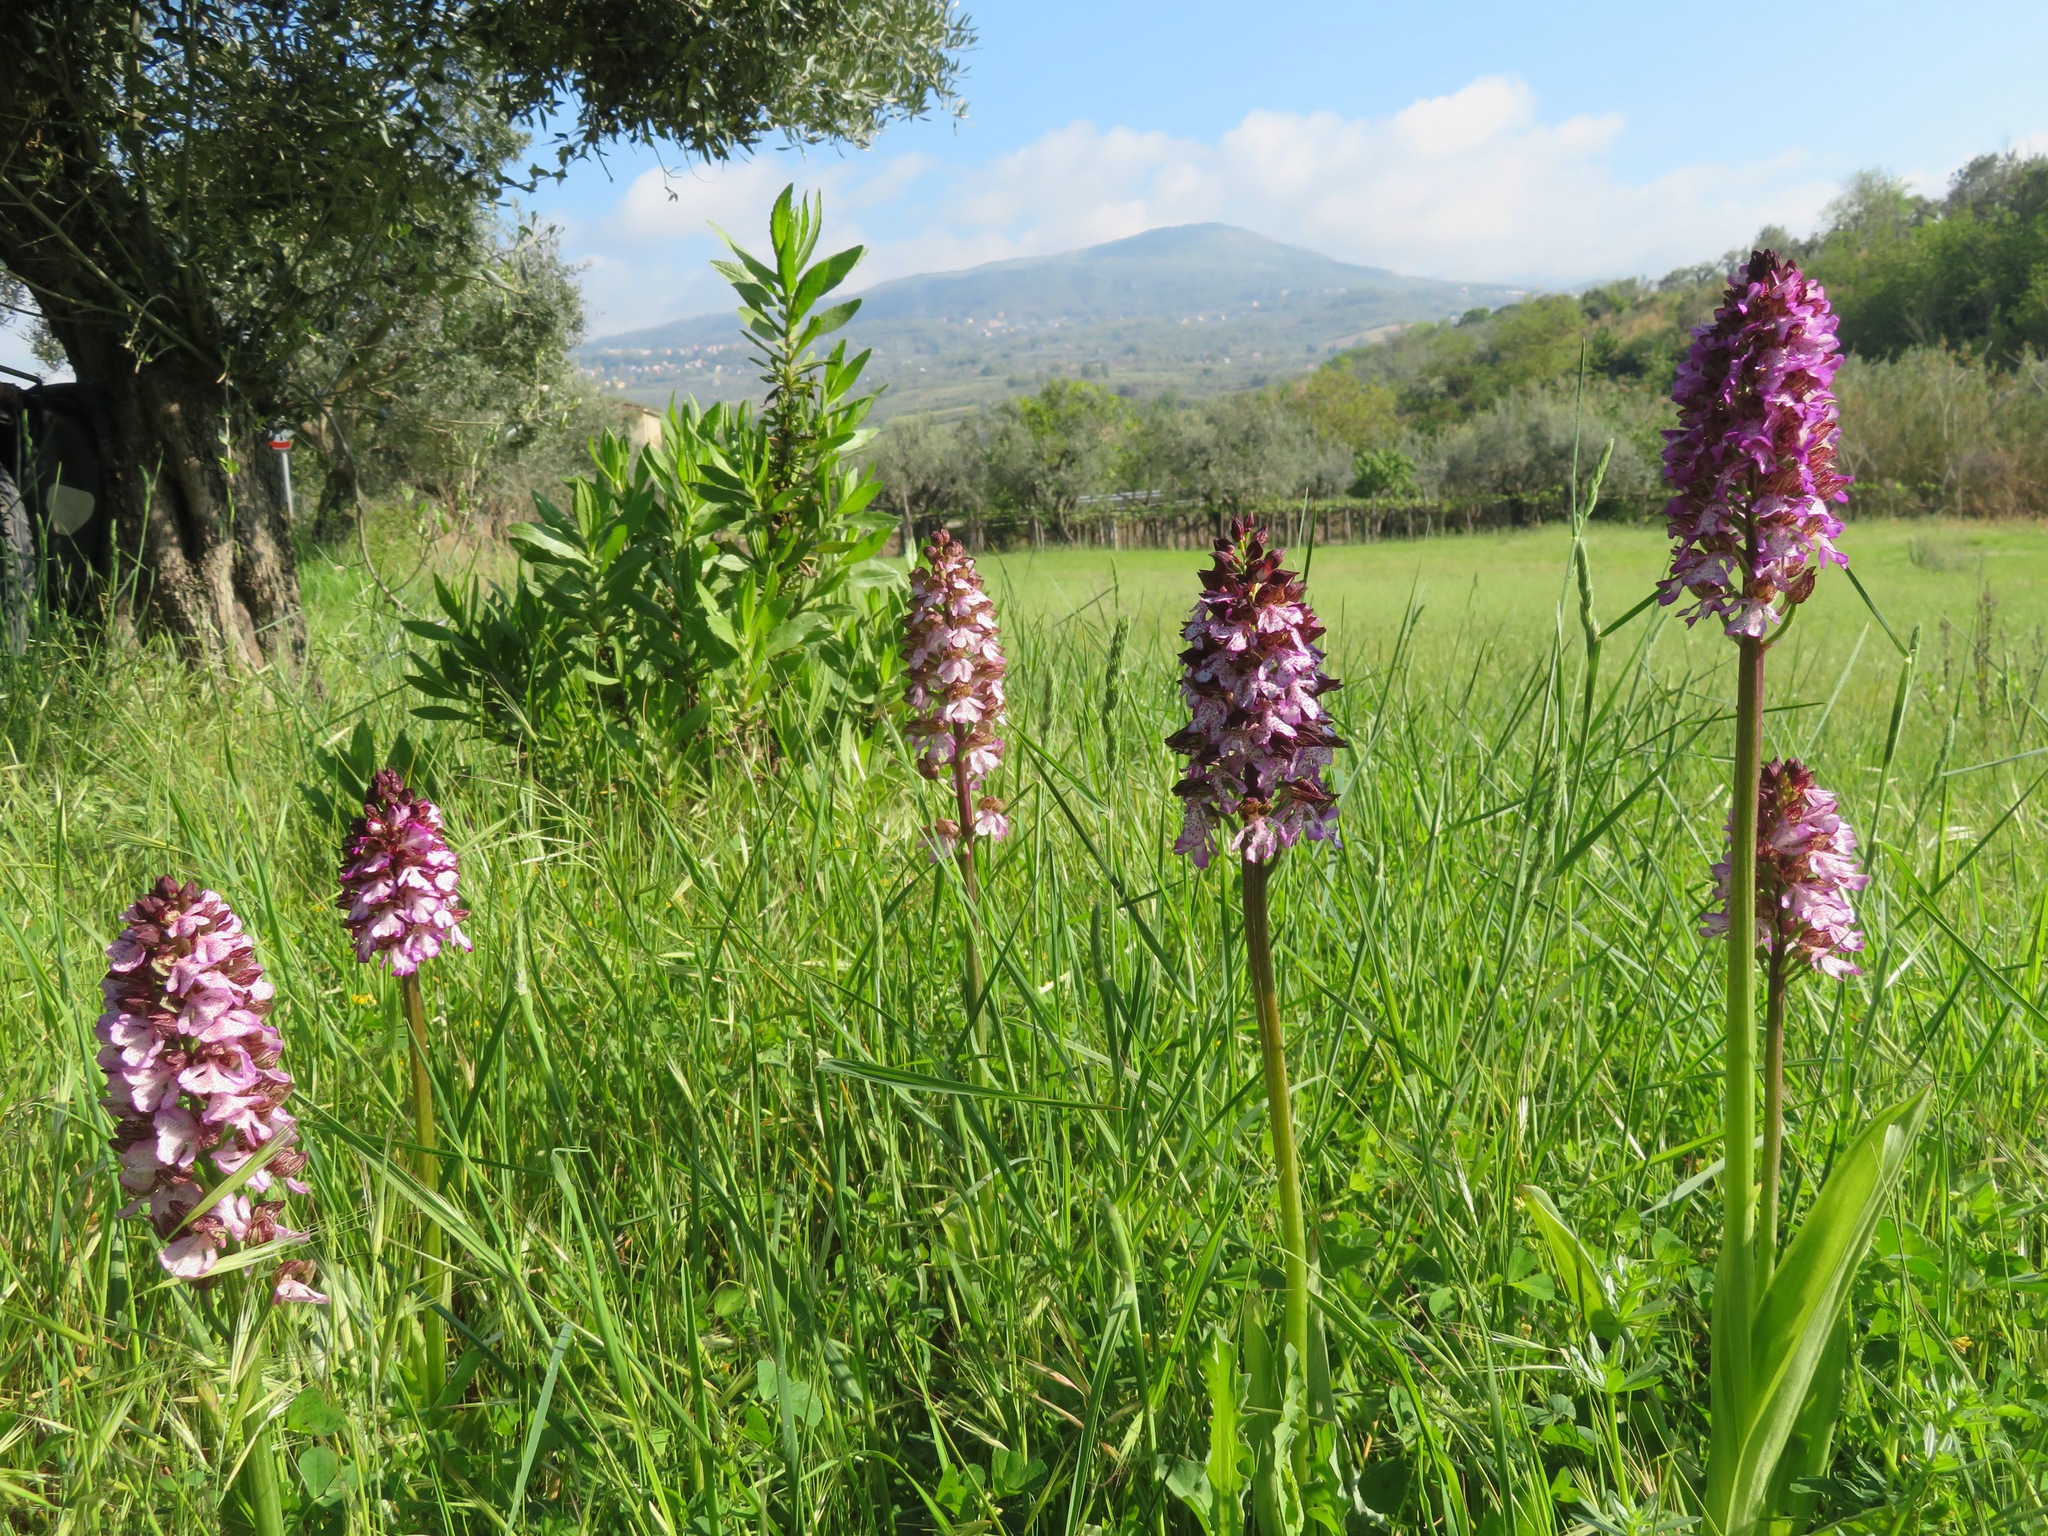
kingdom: Plantae
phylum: Tracheophyta
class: Liliopsida
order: Asparagales
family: Orchidaceae
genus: Orchis
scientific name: Orchis purpurea
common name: Lady orchid
